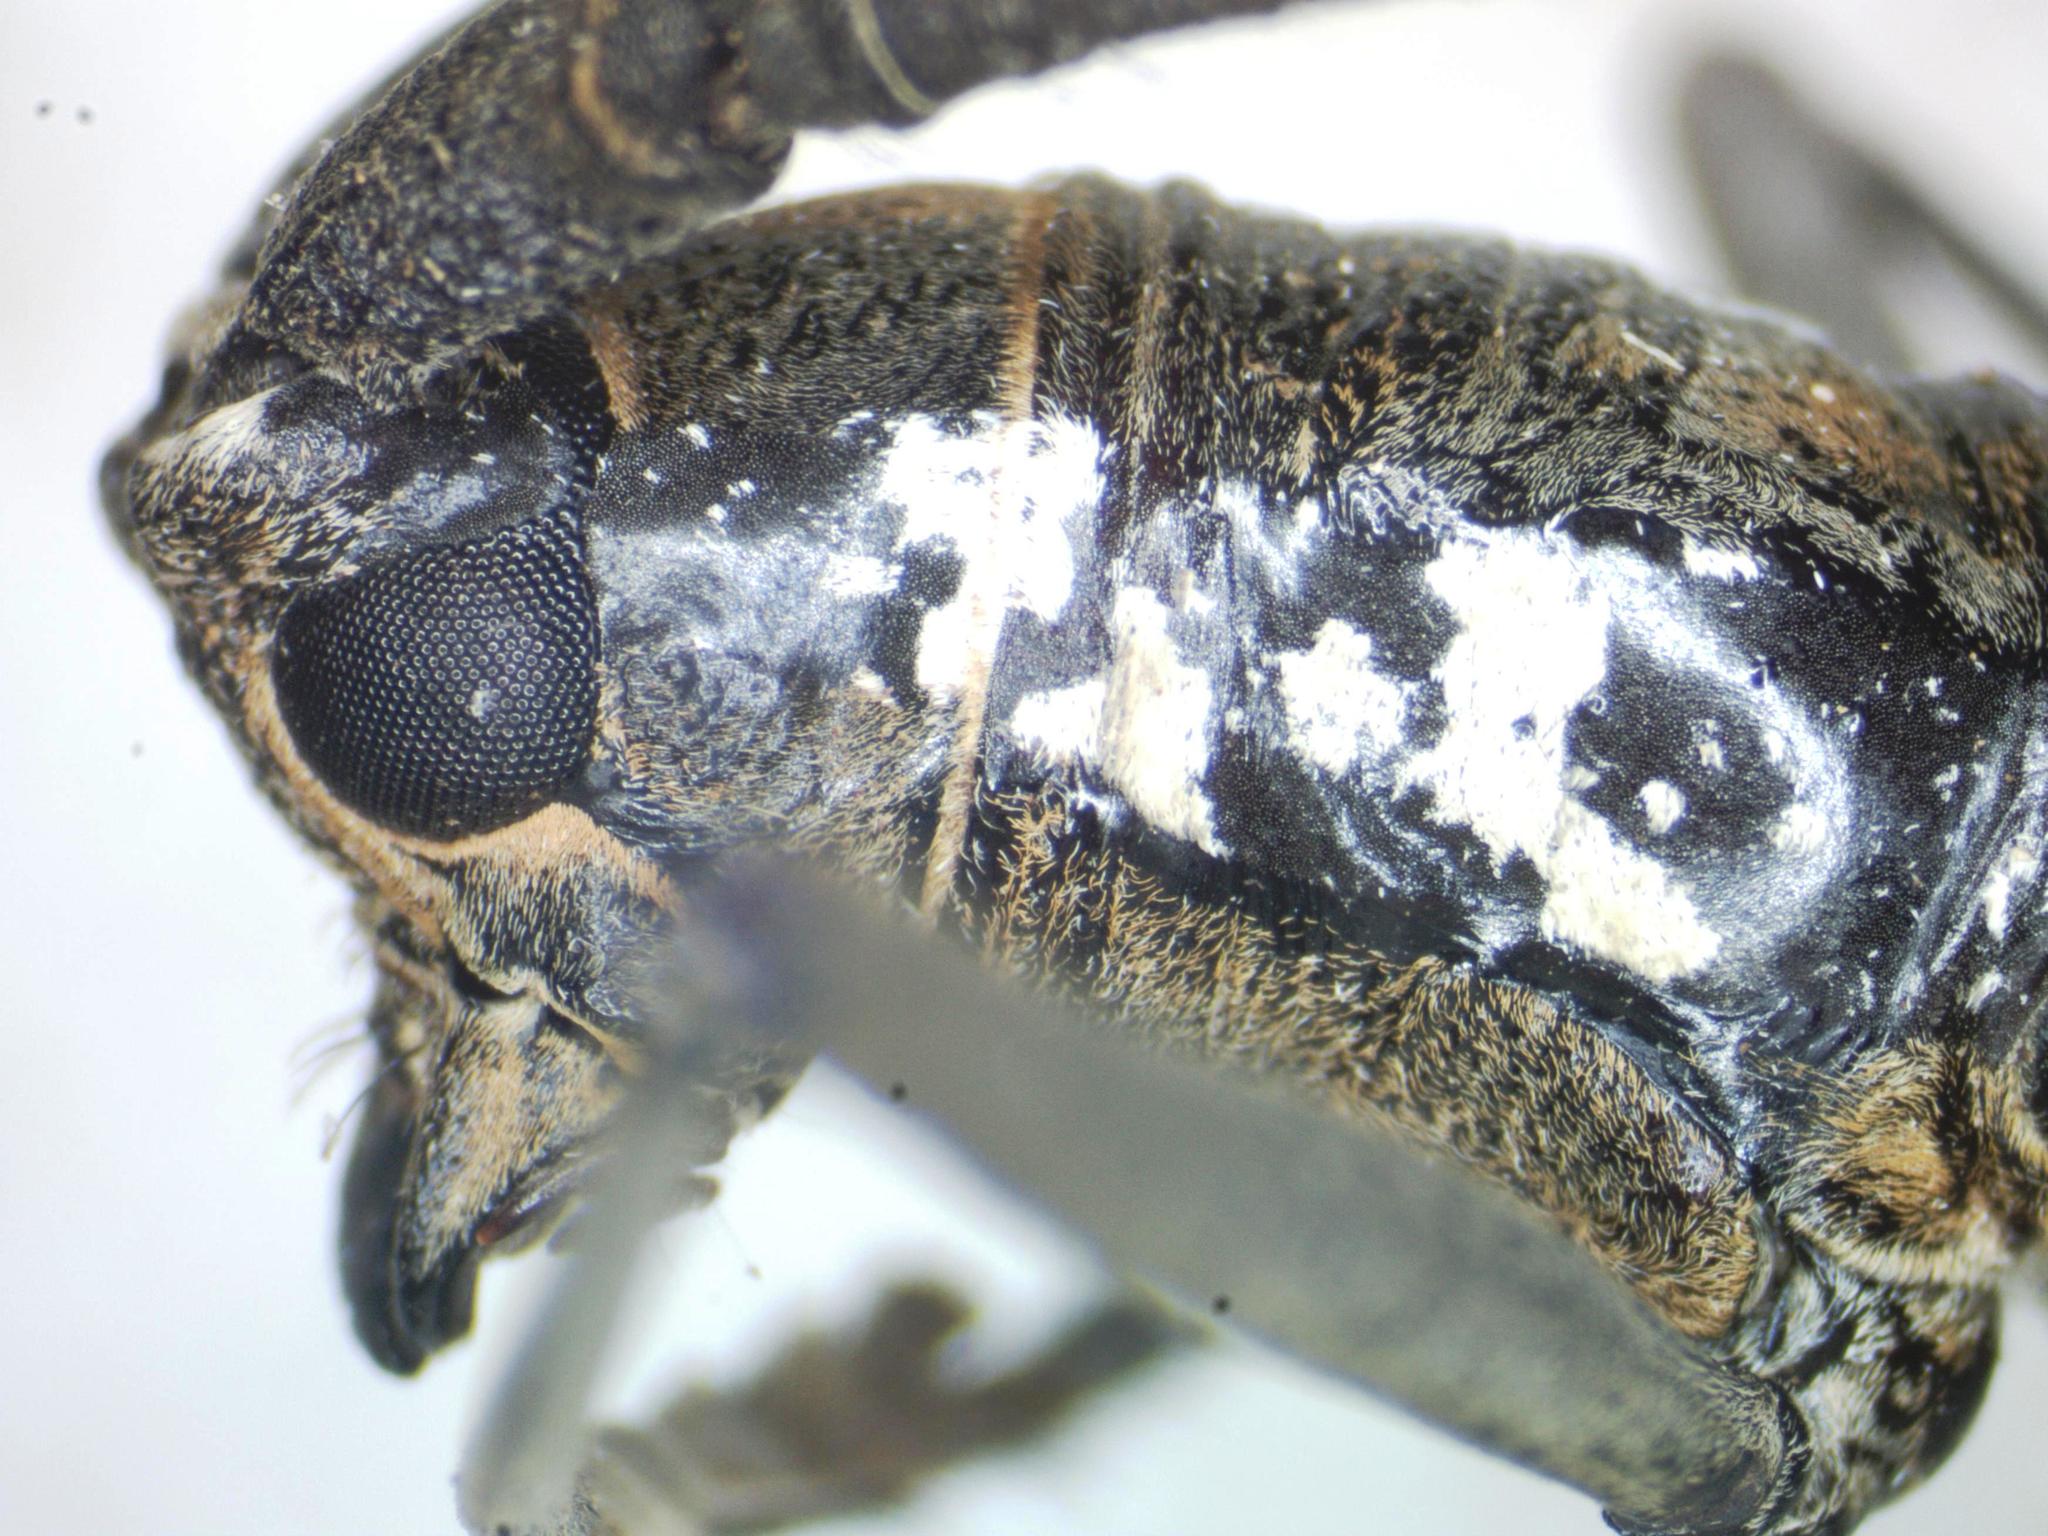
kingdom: Animalia
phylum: Arthropoda
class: Insecta
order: Coleoptera
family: Cerambycidae
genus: Neoptychodes
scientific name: Neoptychodes trilineatus
